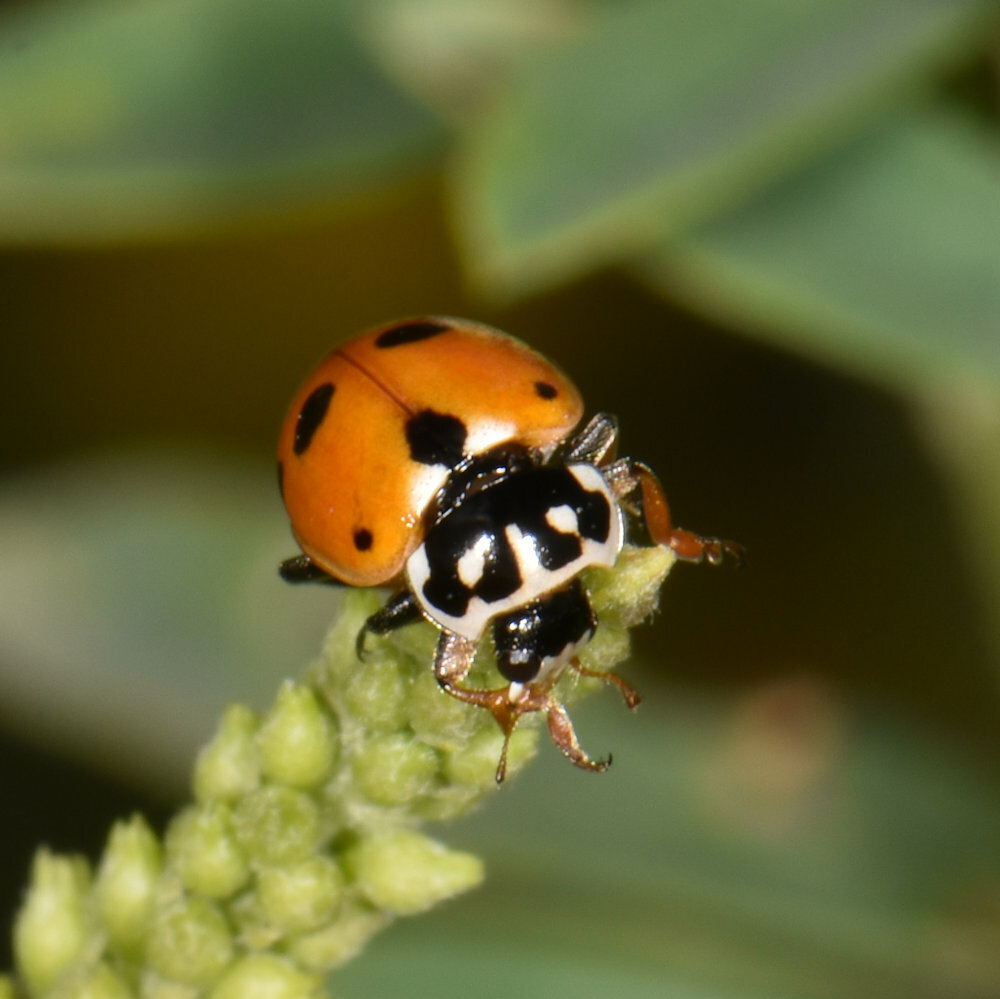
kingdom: Animalia
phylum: Arthropoda
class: Insecta
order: Coleoptera
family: Coccinellidae
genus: Hippodamia
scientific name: Hippodamia variegata
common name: Ladybird beetle
